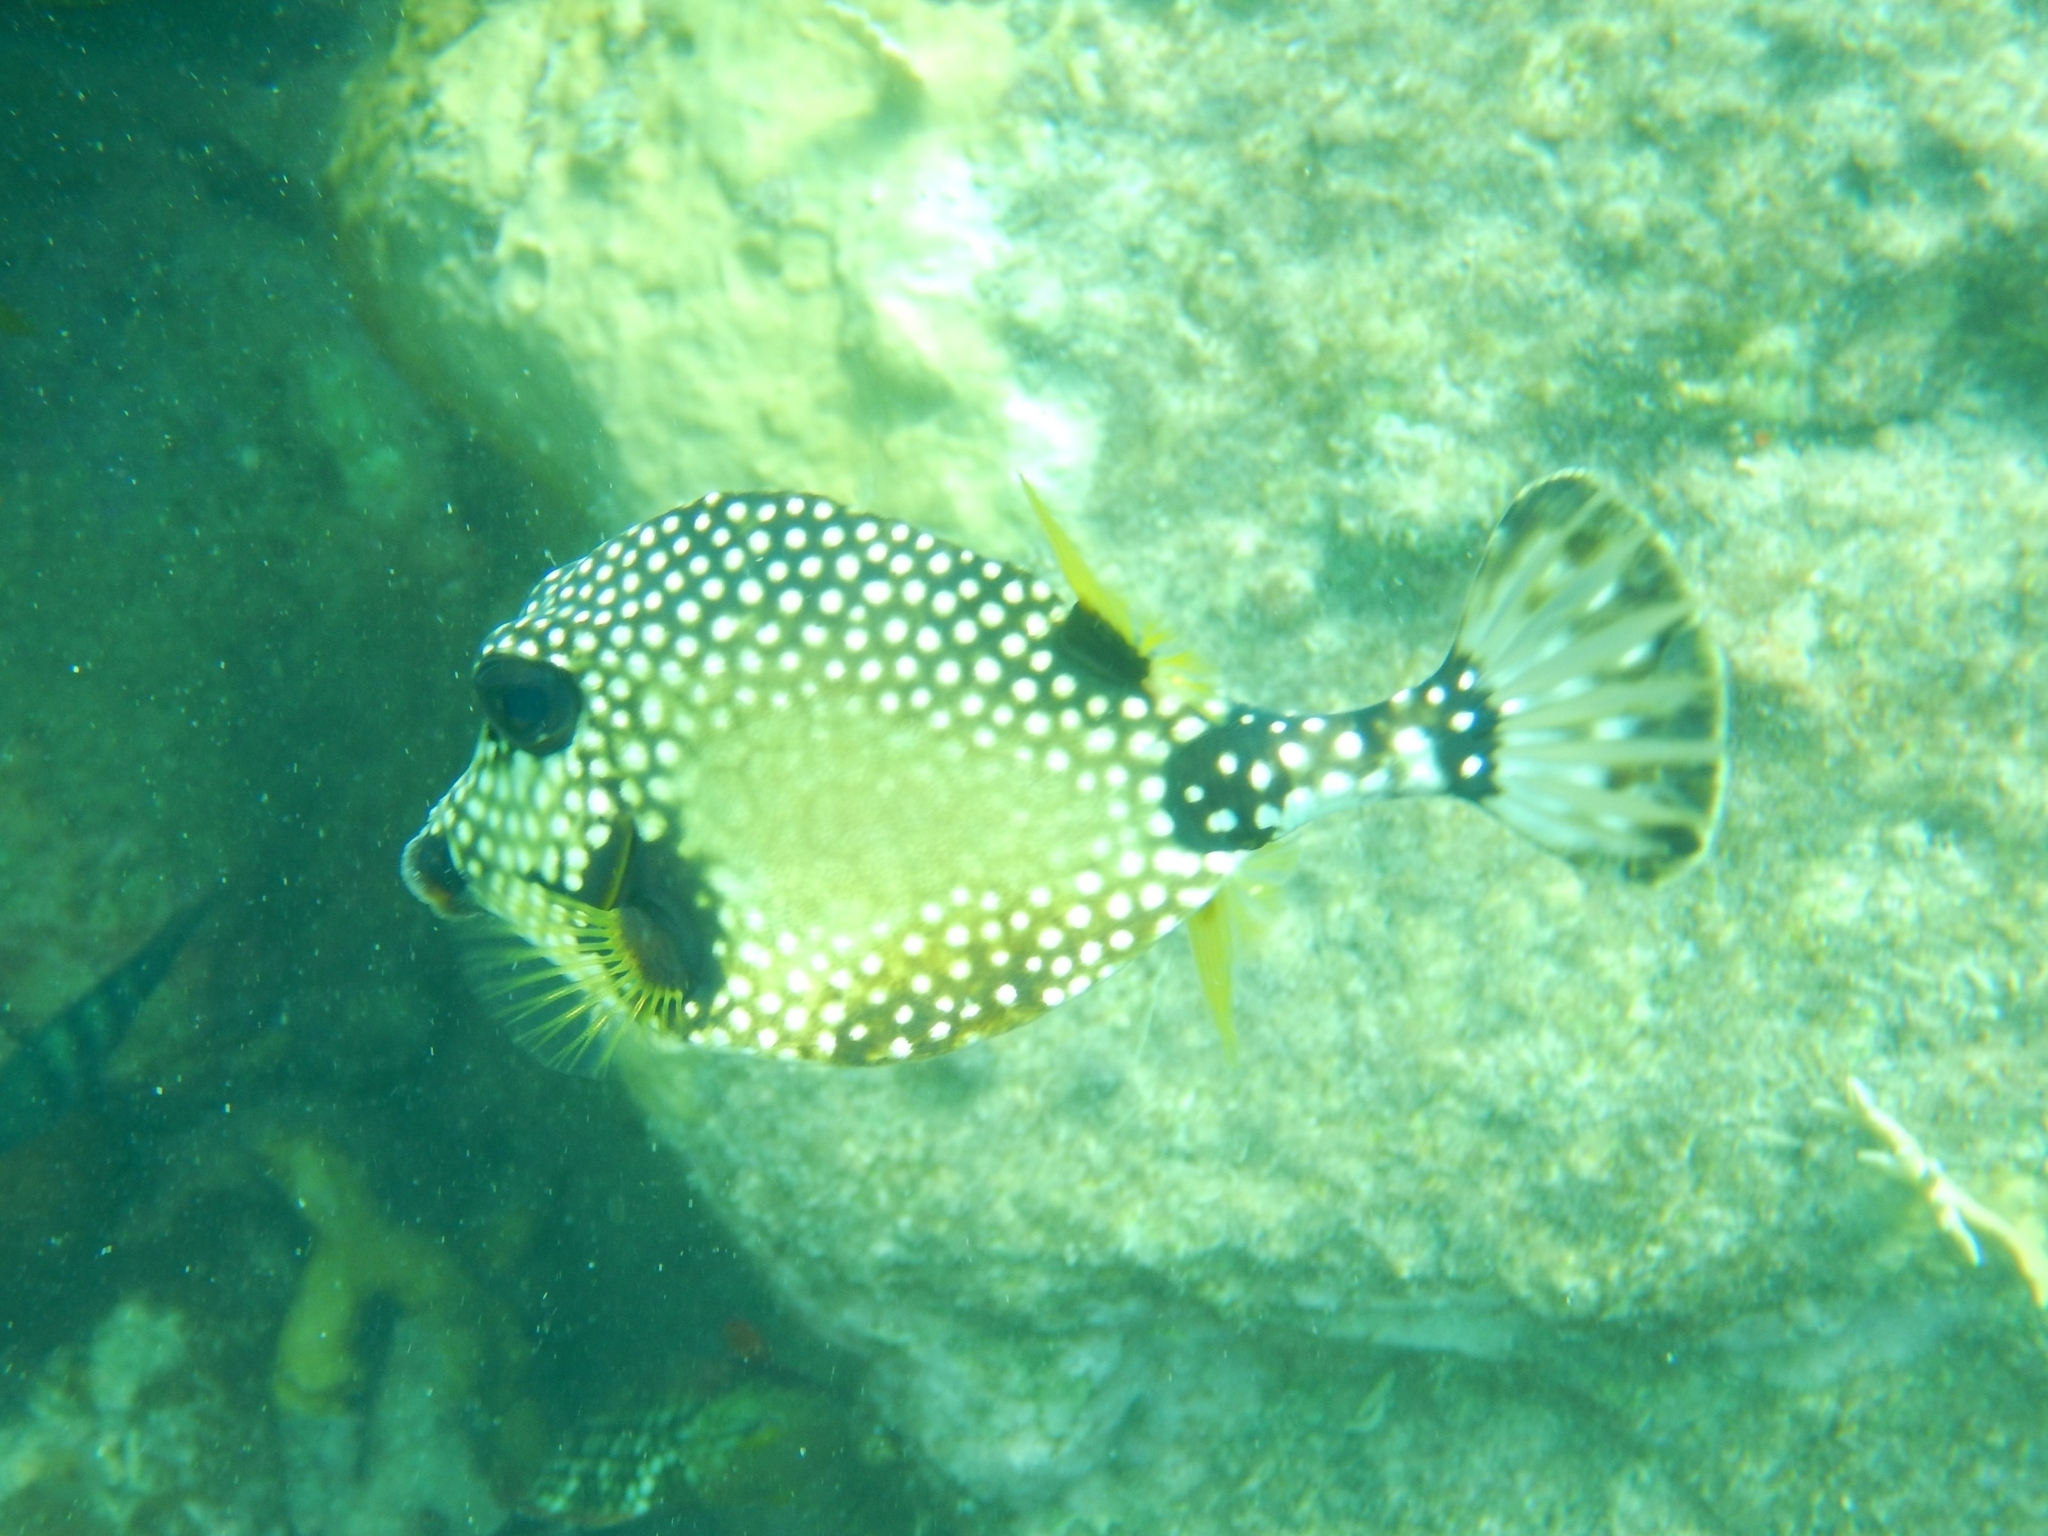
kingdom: Animalia
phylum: Chordata
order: Tetraodontiformes
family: Ostraciidae
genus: Lactophrys
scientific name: Lactophrys triqueter
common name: Smooth trunkfish
